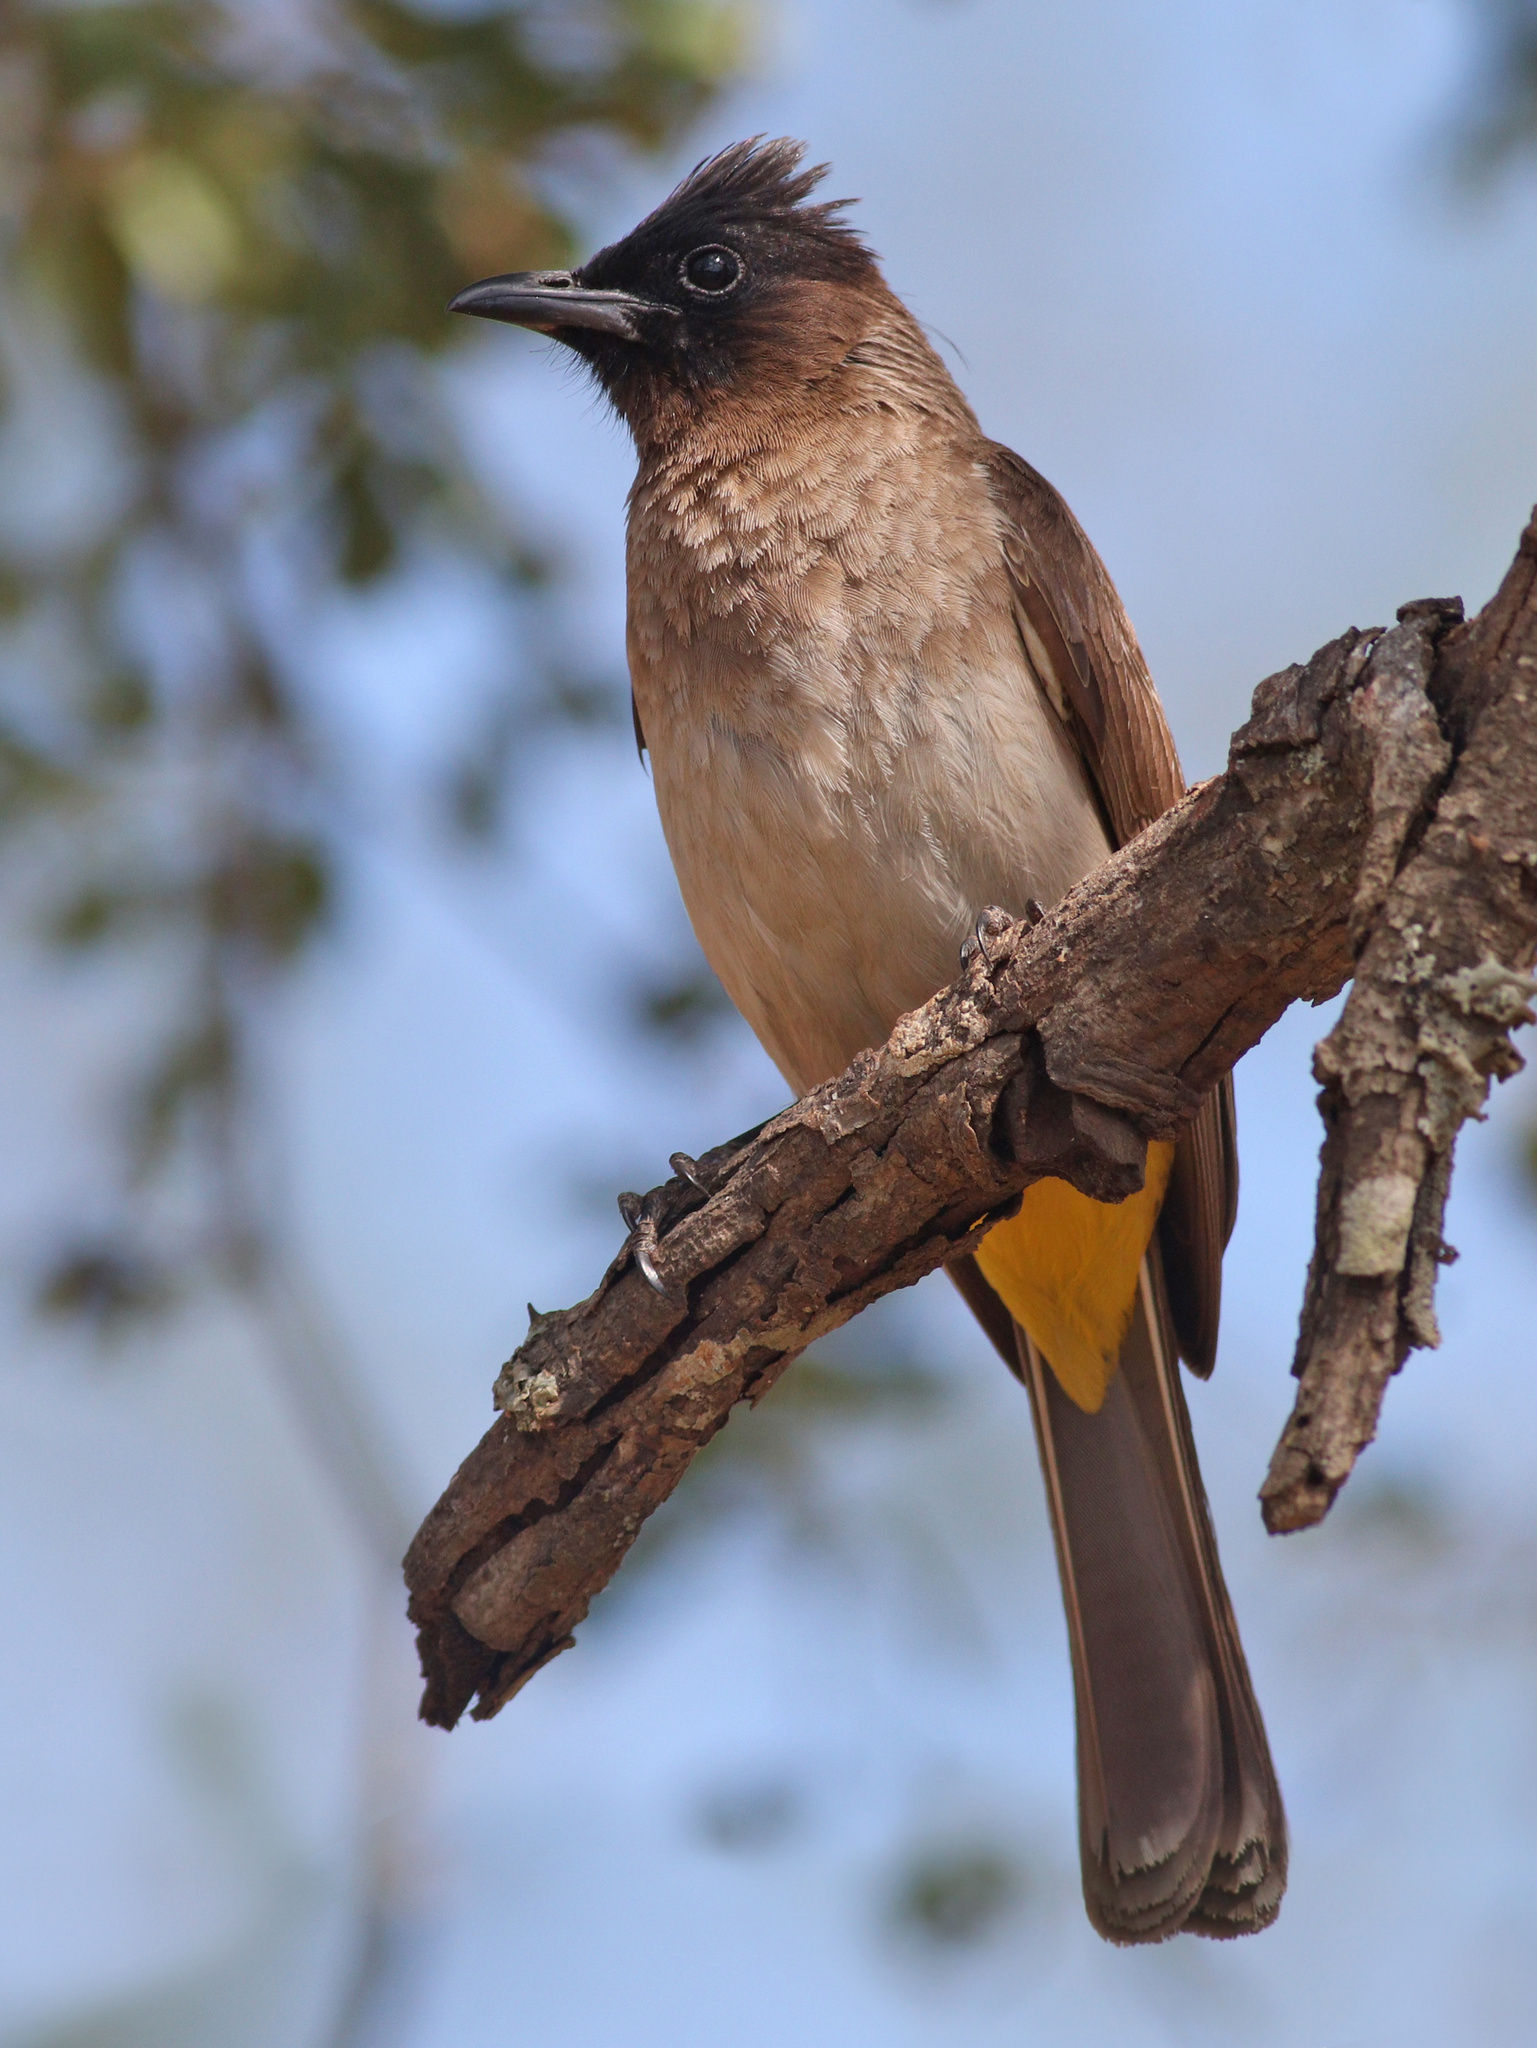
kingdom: Animalia
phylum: Chordata
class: Aves
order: Passeriformes
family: Pycnonotidae
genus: Pycnonotus
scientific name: Pycnonotus barbatus
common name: Common bulbul
